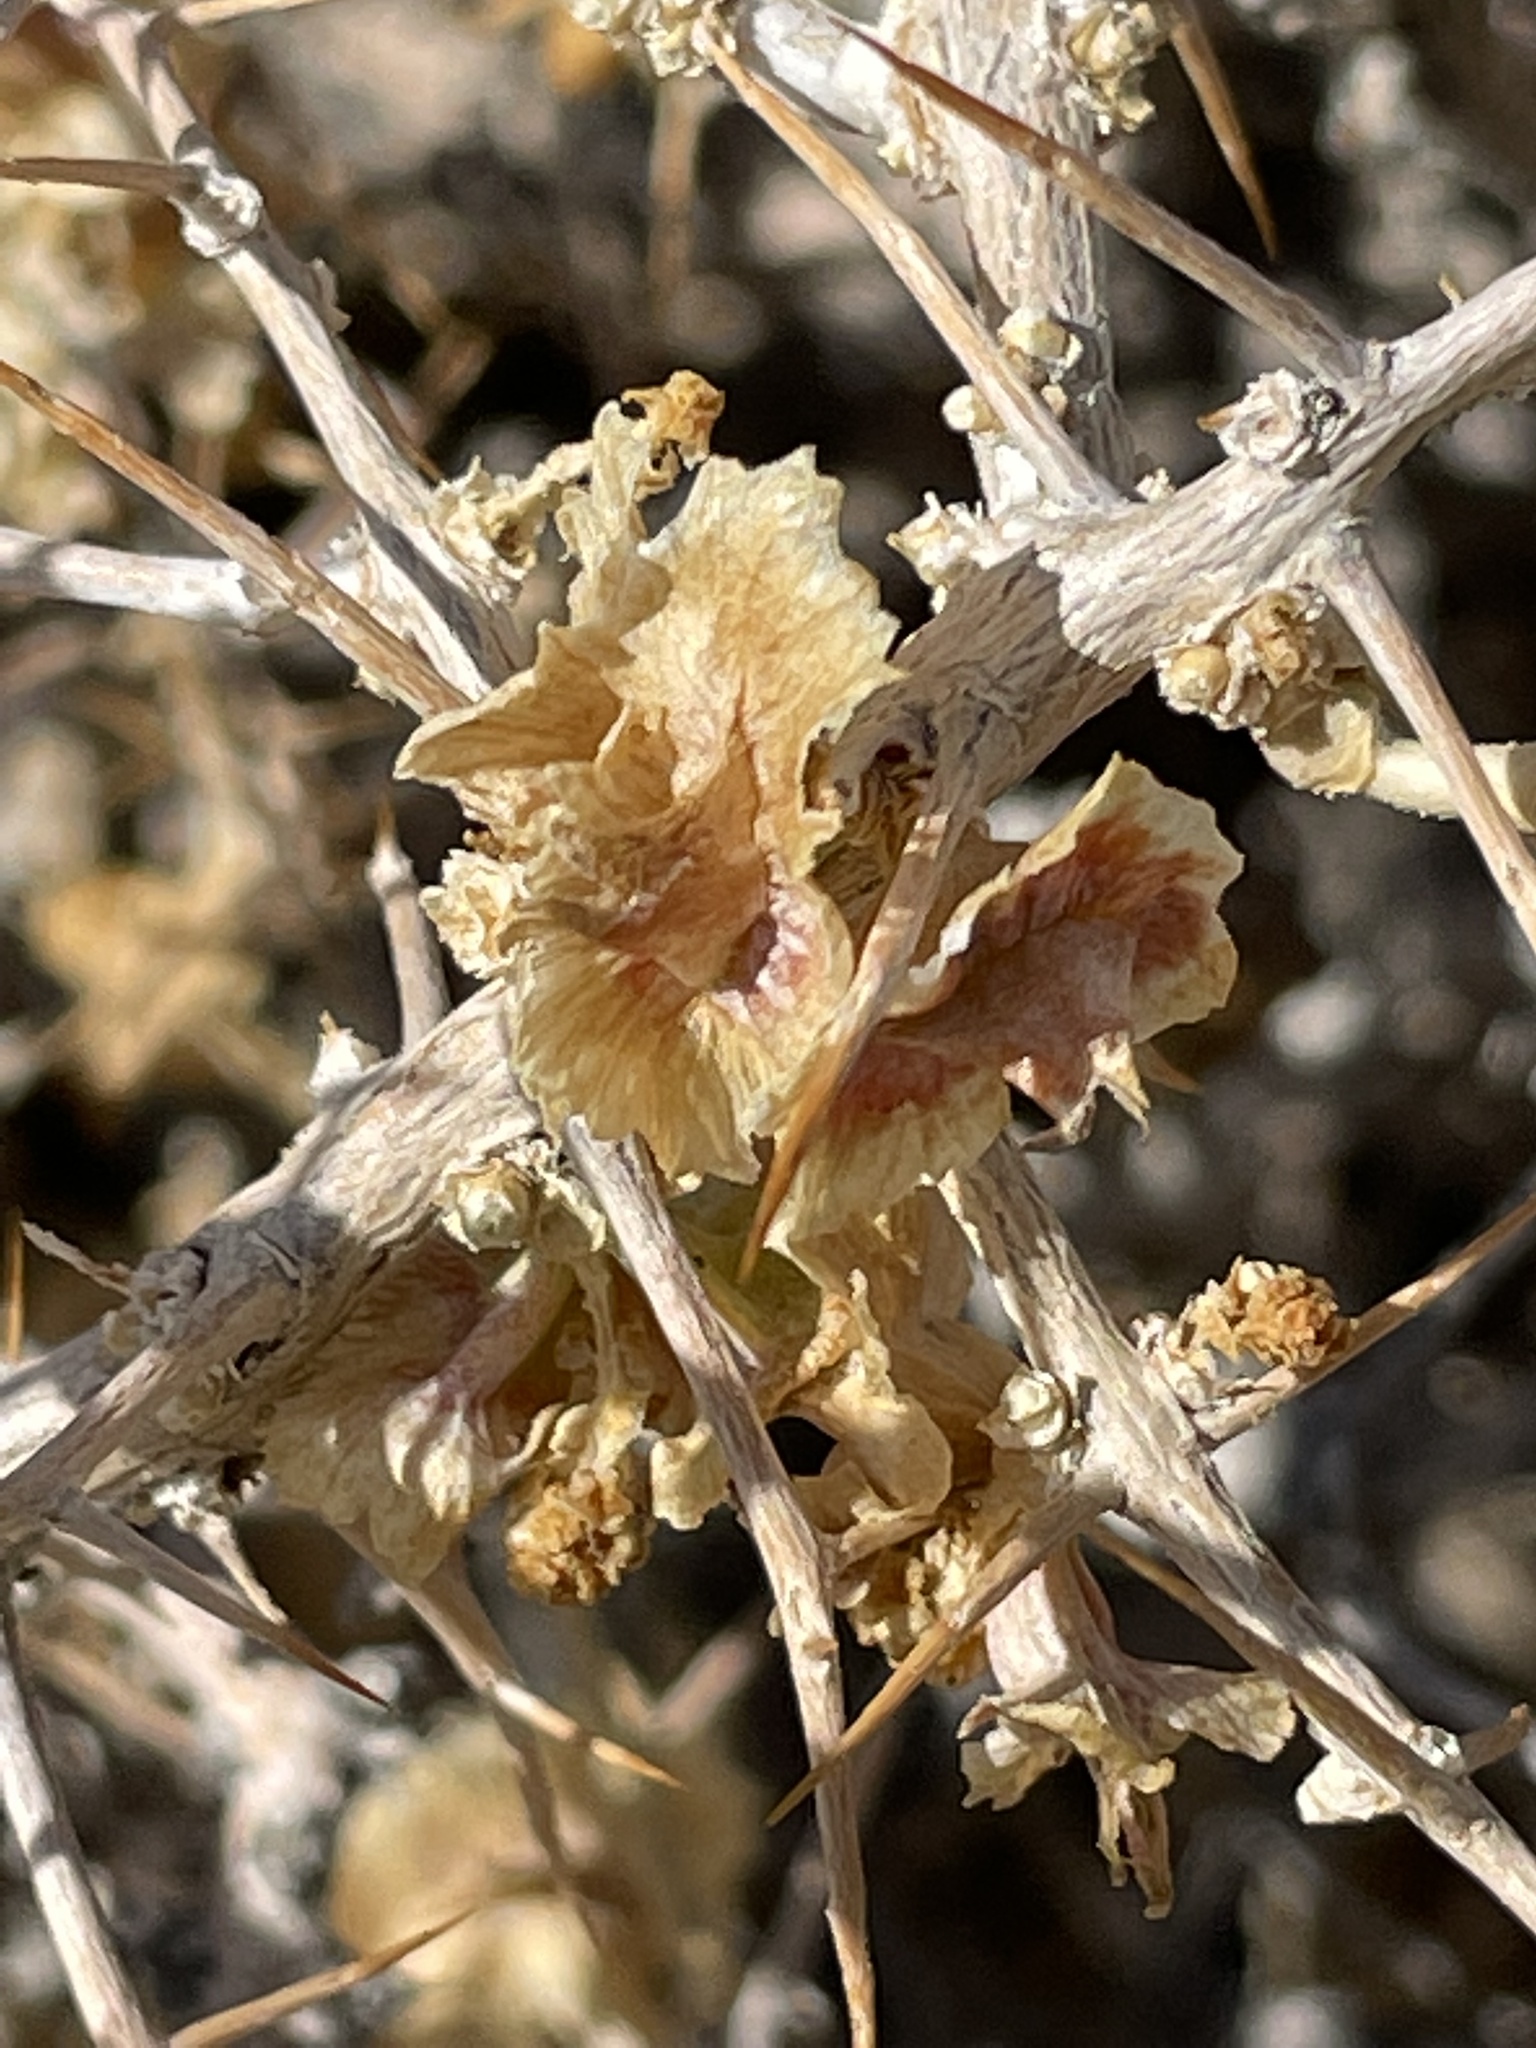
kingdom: Plantae
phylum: Tracheophyta
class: Magnoliopsida
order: Caryophyllales
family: Sarcobataceae
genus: Sarcobatus
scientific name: Sarcobatus baileyi
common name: Bailey greasewood
